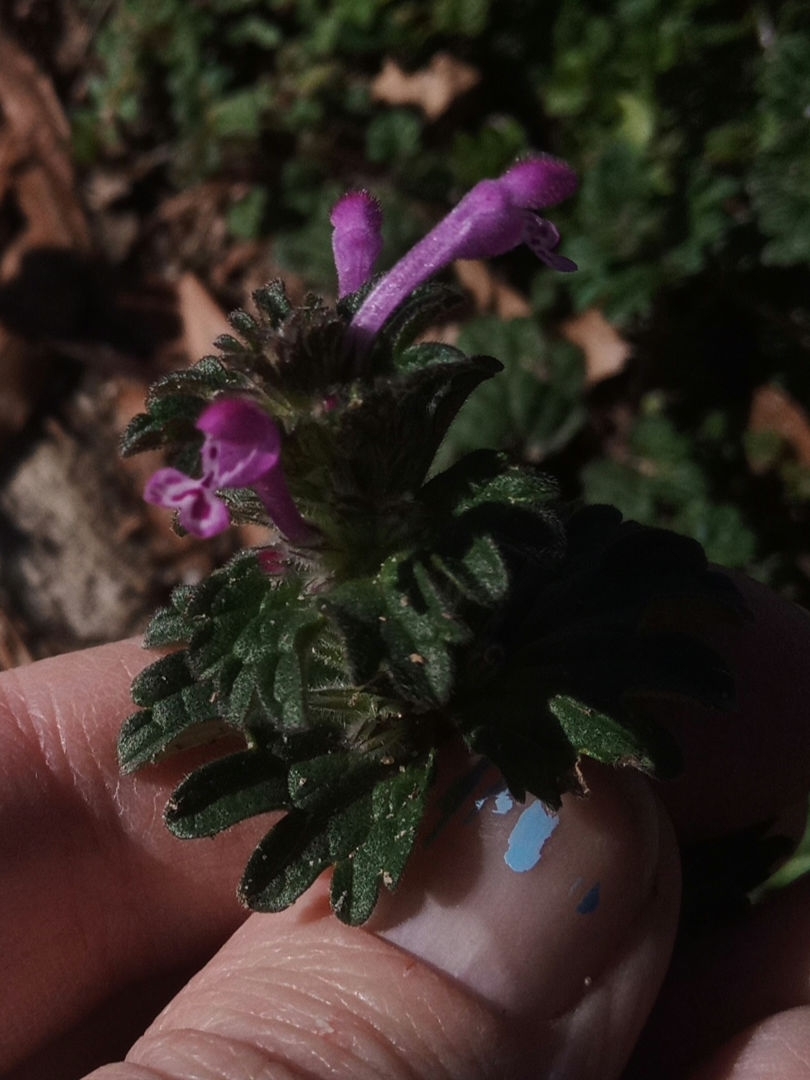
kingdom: Plantae
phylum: Tracheophyta
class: Magnoliopsida
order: Lamiales
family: Lamiaceae
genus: Lamium
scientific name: Lamium amplexicaule
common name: Henbit dead-nettle
